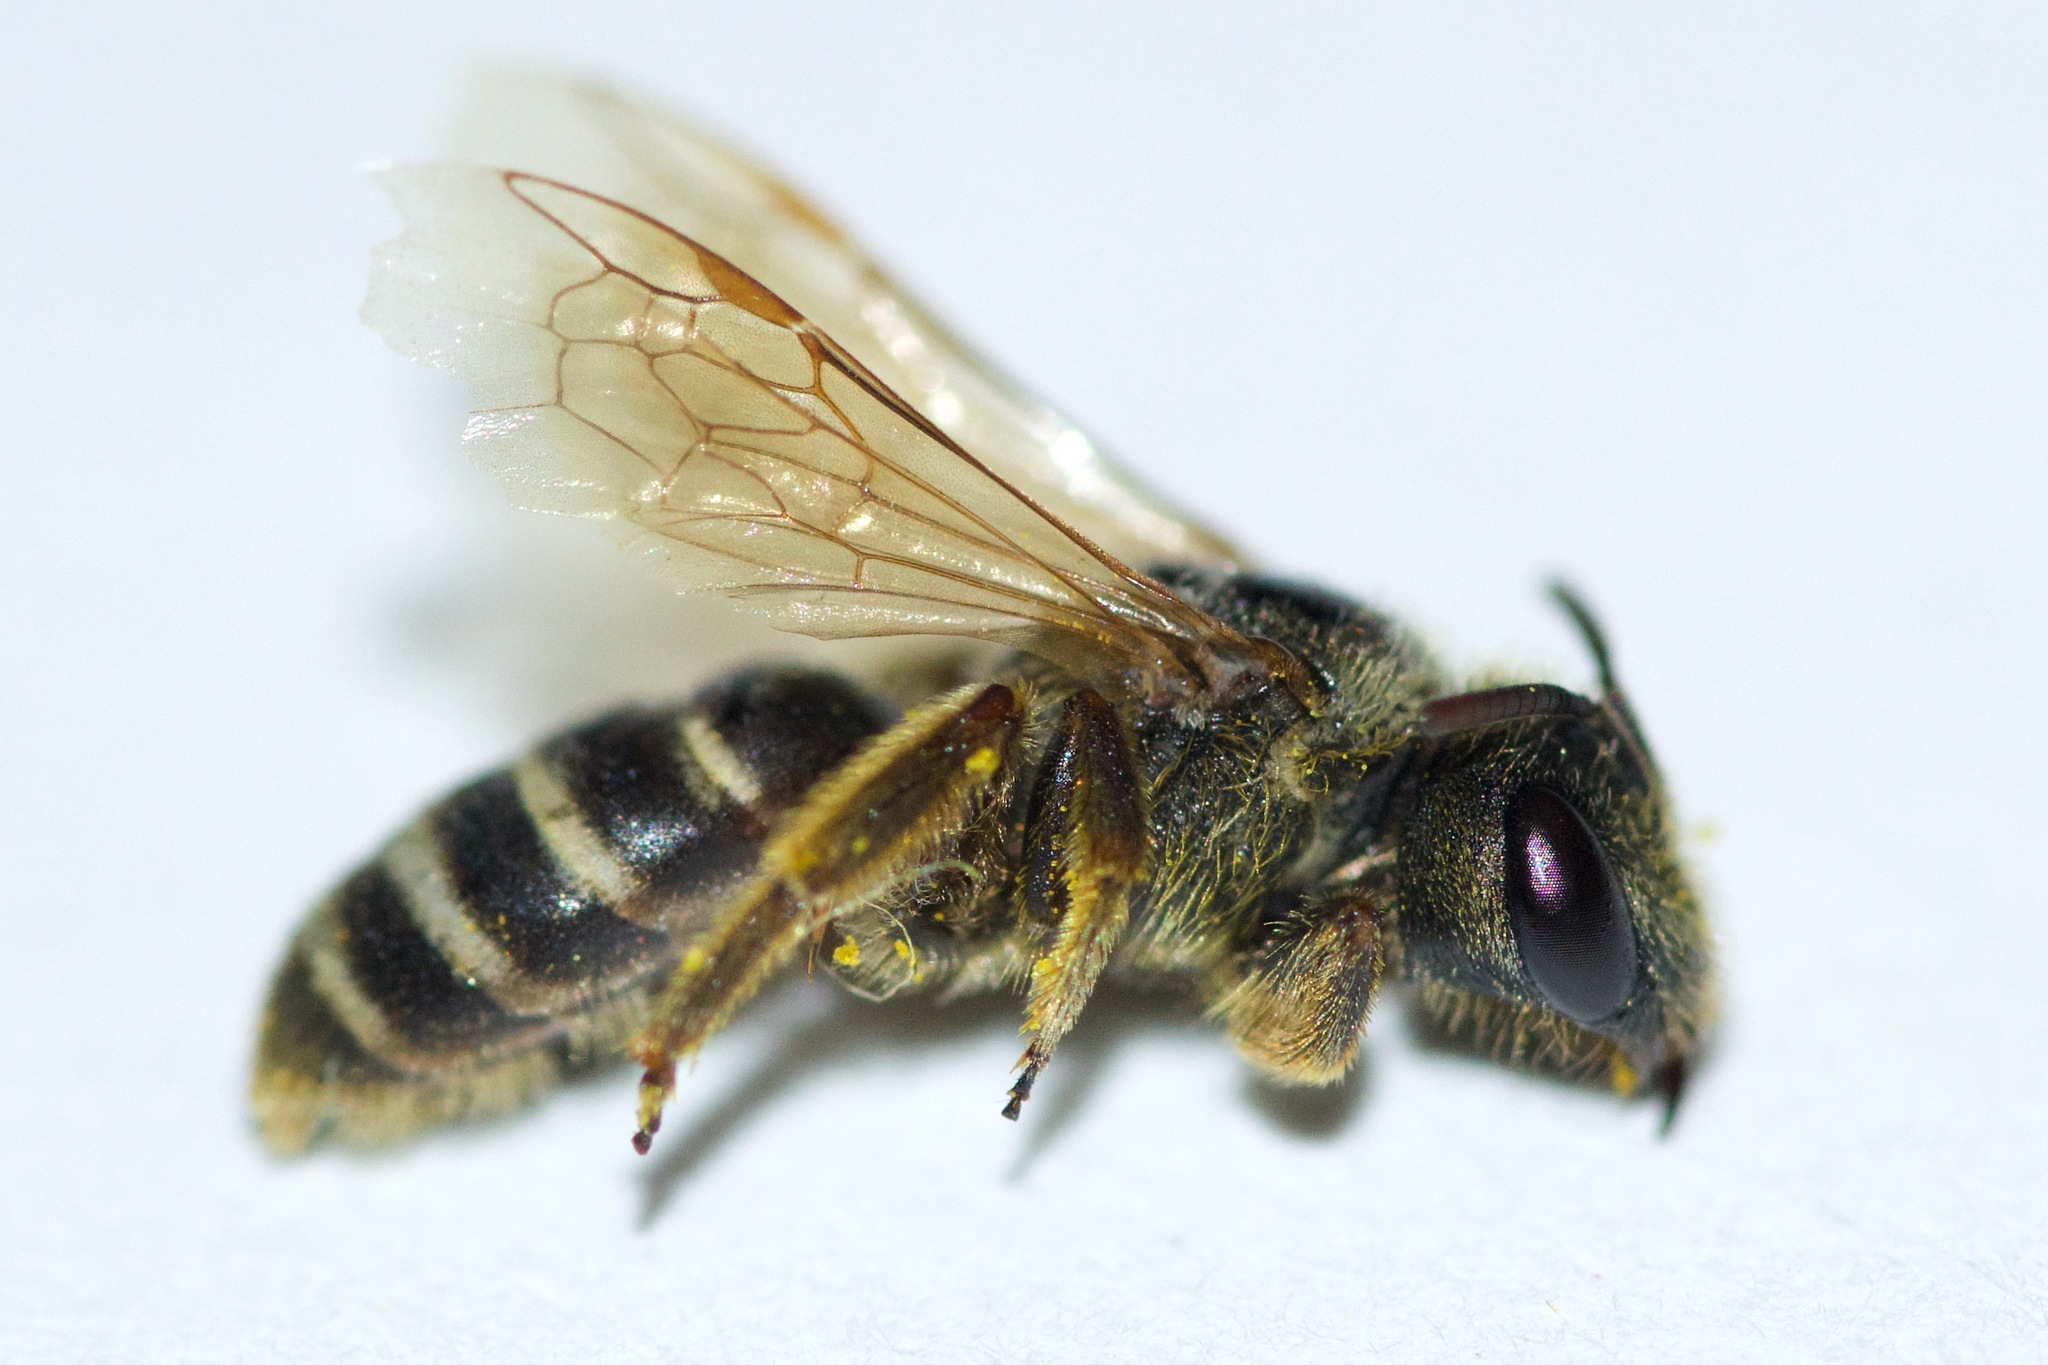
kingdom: Animalia
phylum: Arthropoda
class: Insecta
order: Hymenoptera
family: Halictidae
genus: Halictus
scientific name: Halictus ligatus
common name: Ligated furrow bee
